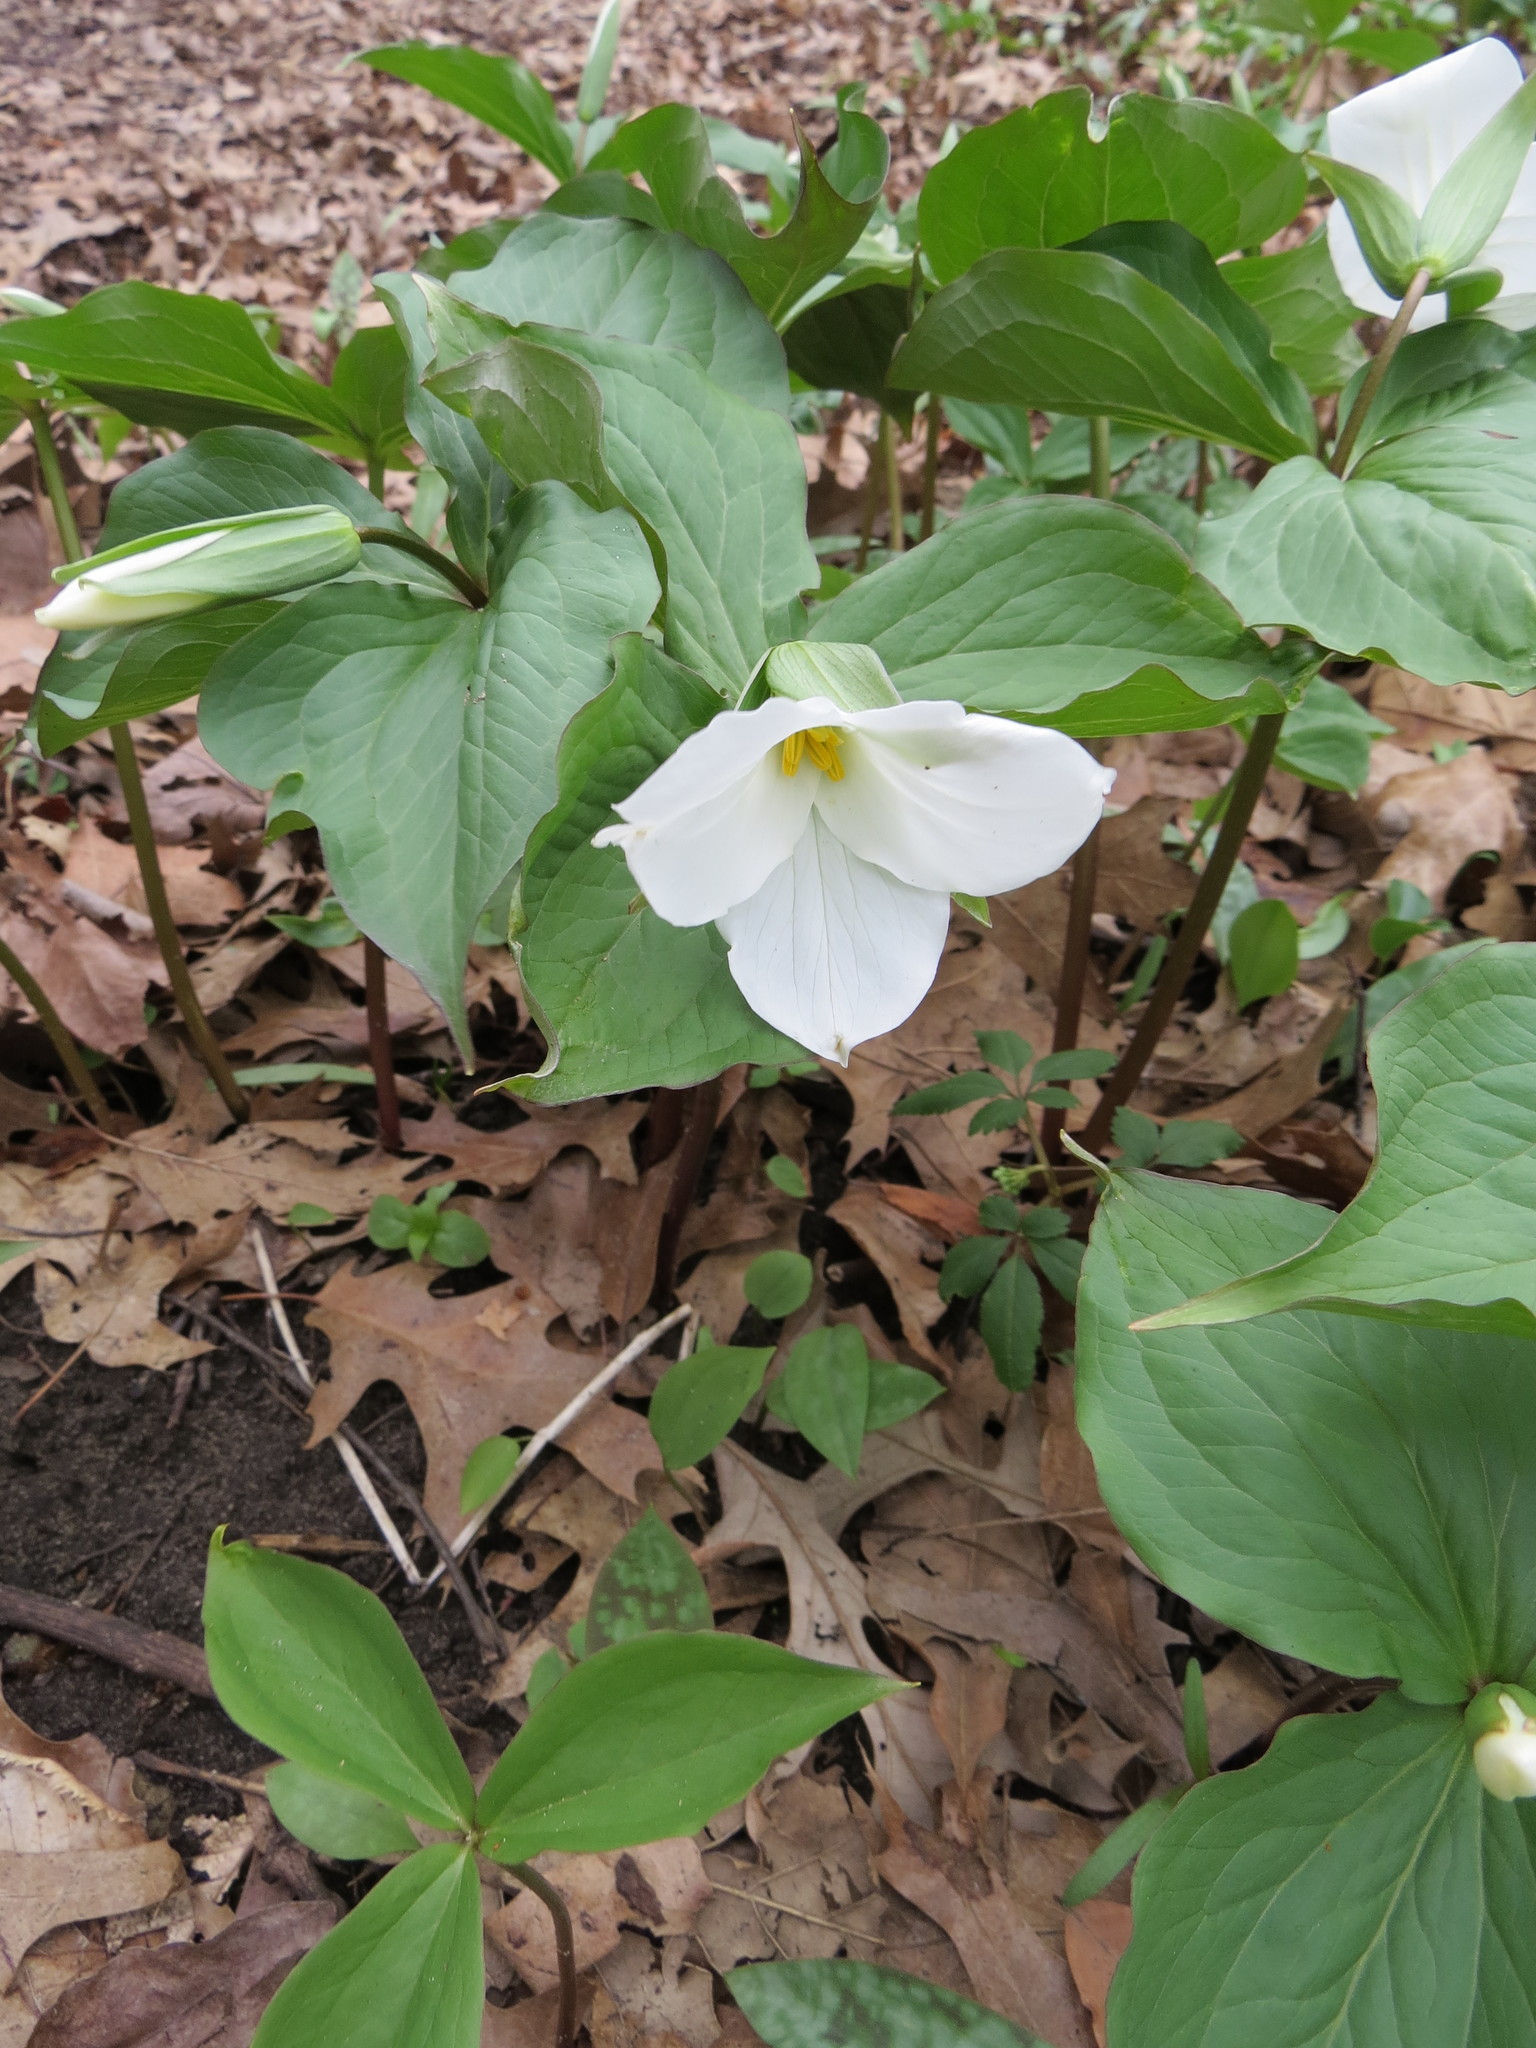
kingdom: Plantae
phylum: Tracheophyta
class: Liliopsida
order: Liliales
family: Melanthiaceae
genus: Trillium
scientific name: Trillium grandiflorum
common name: Great white trillium
